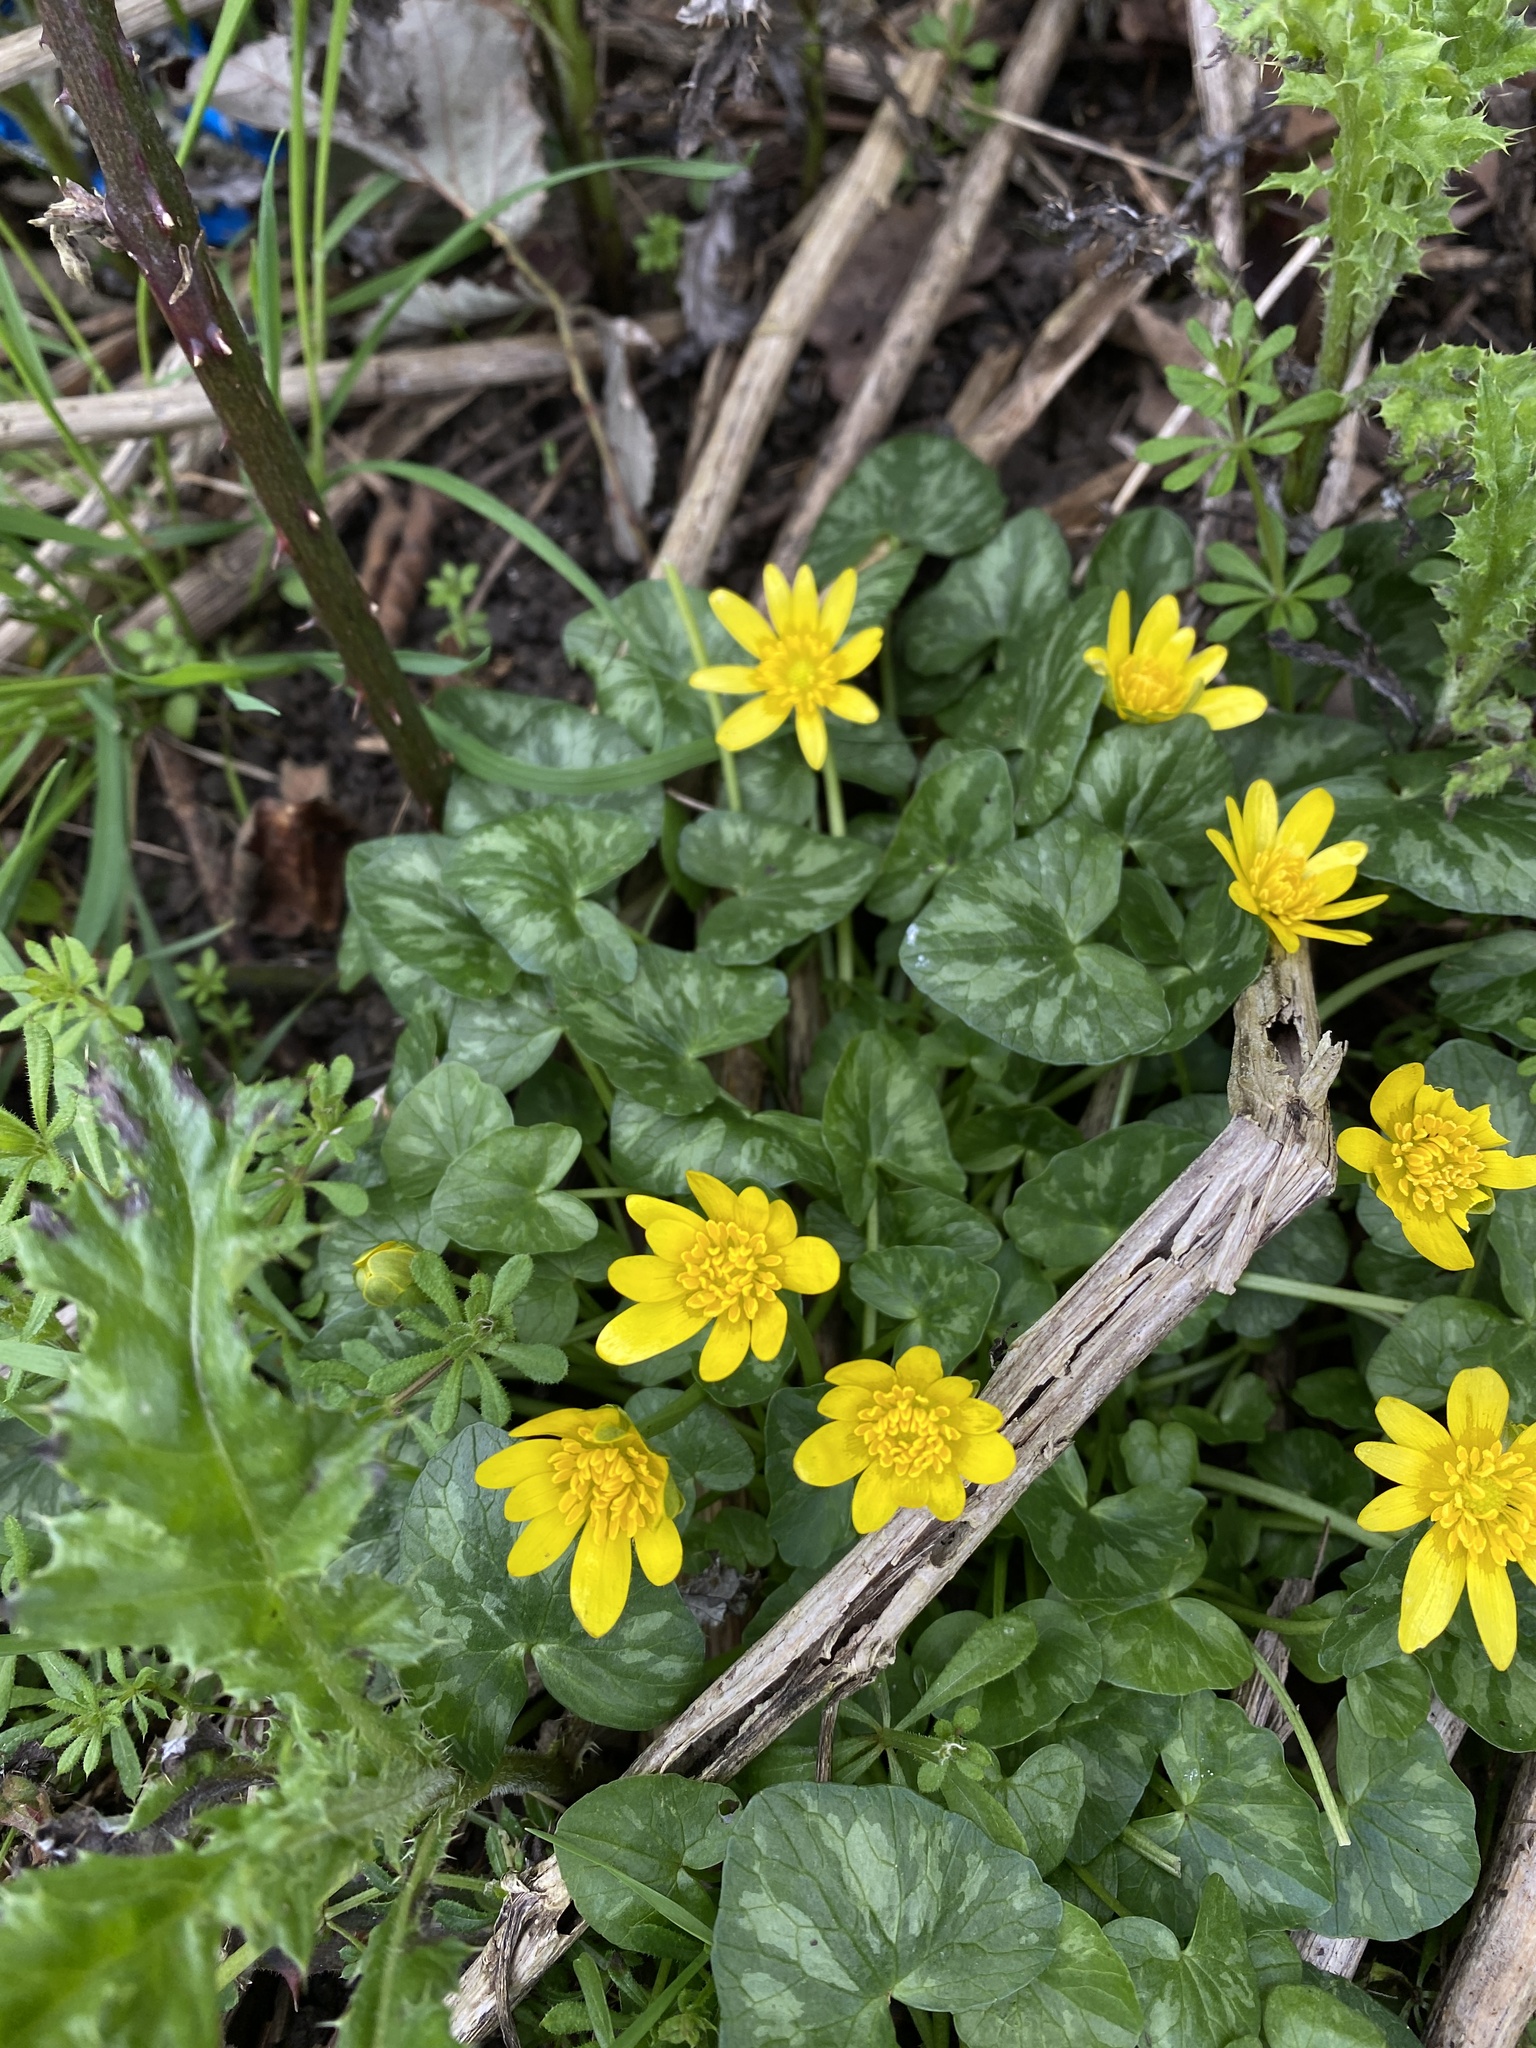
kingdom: Plantae
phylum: Tracheophyta
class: Magnoliopsida
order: Ranunculales
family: Ranunculaceae
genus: Ficaria
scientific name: Ficaria verna
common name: Lesser celandine
